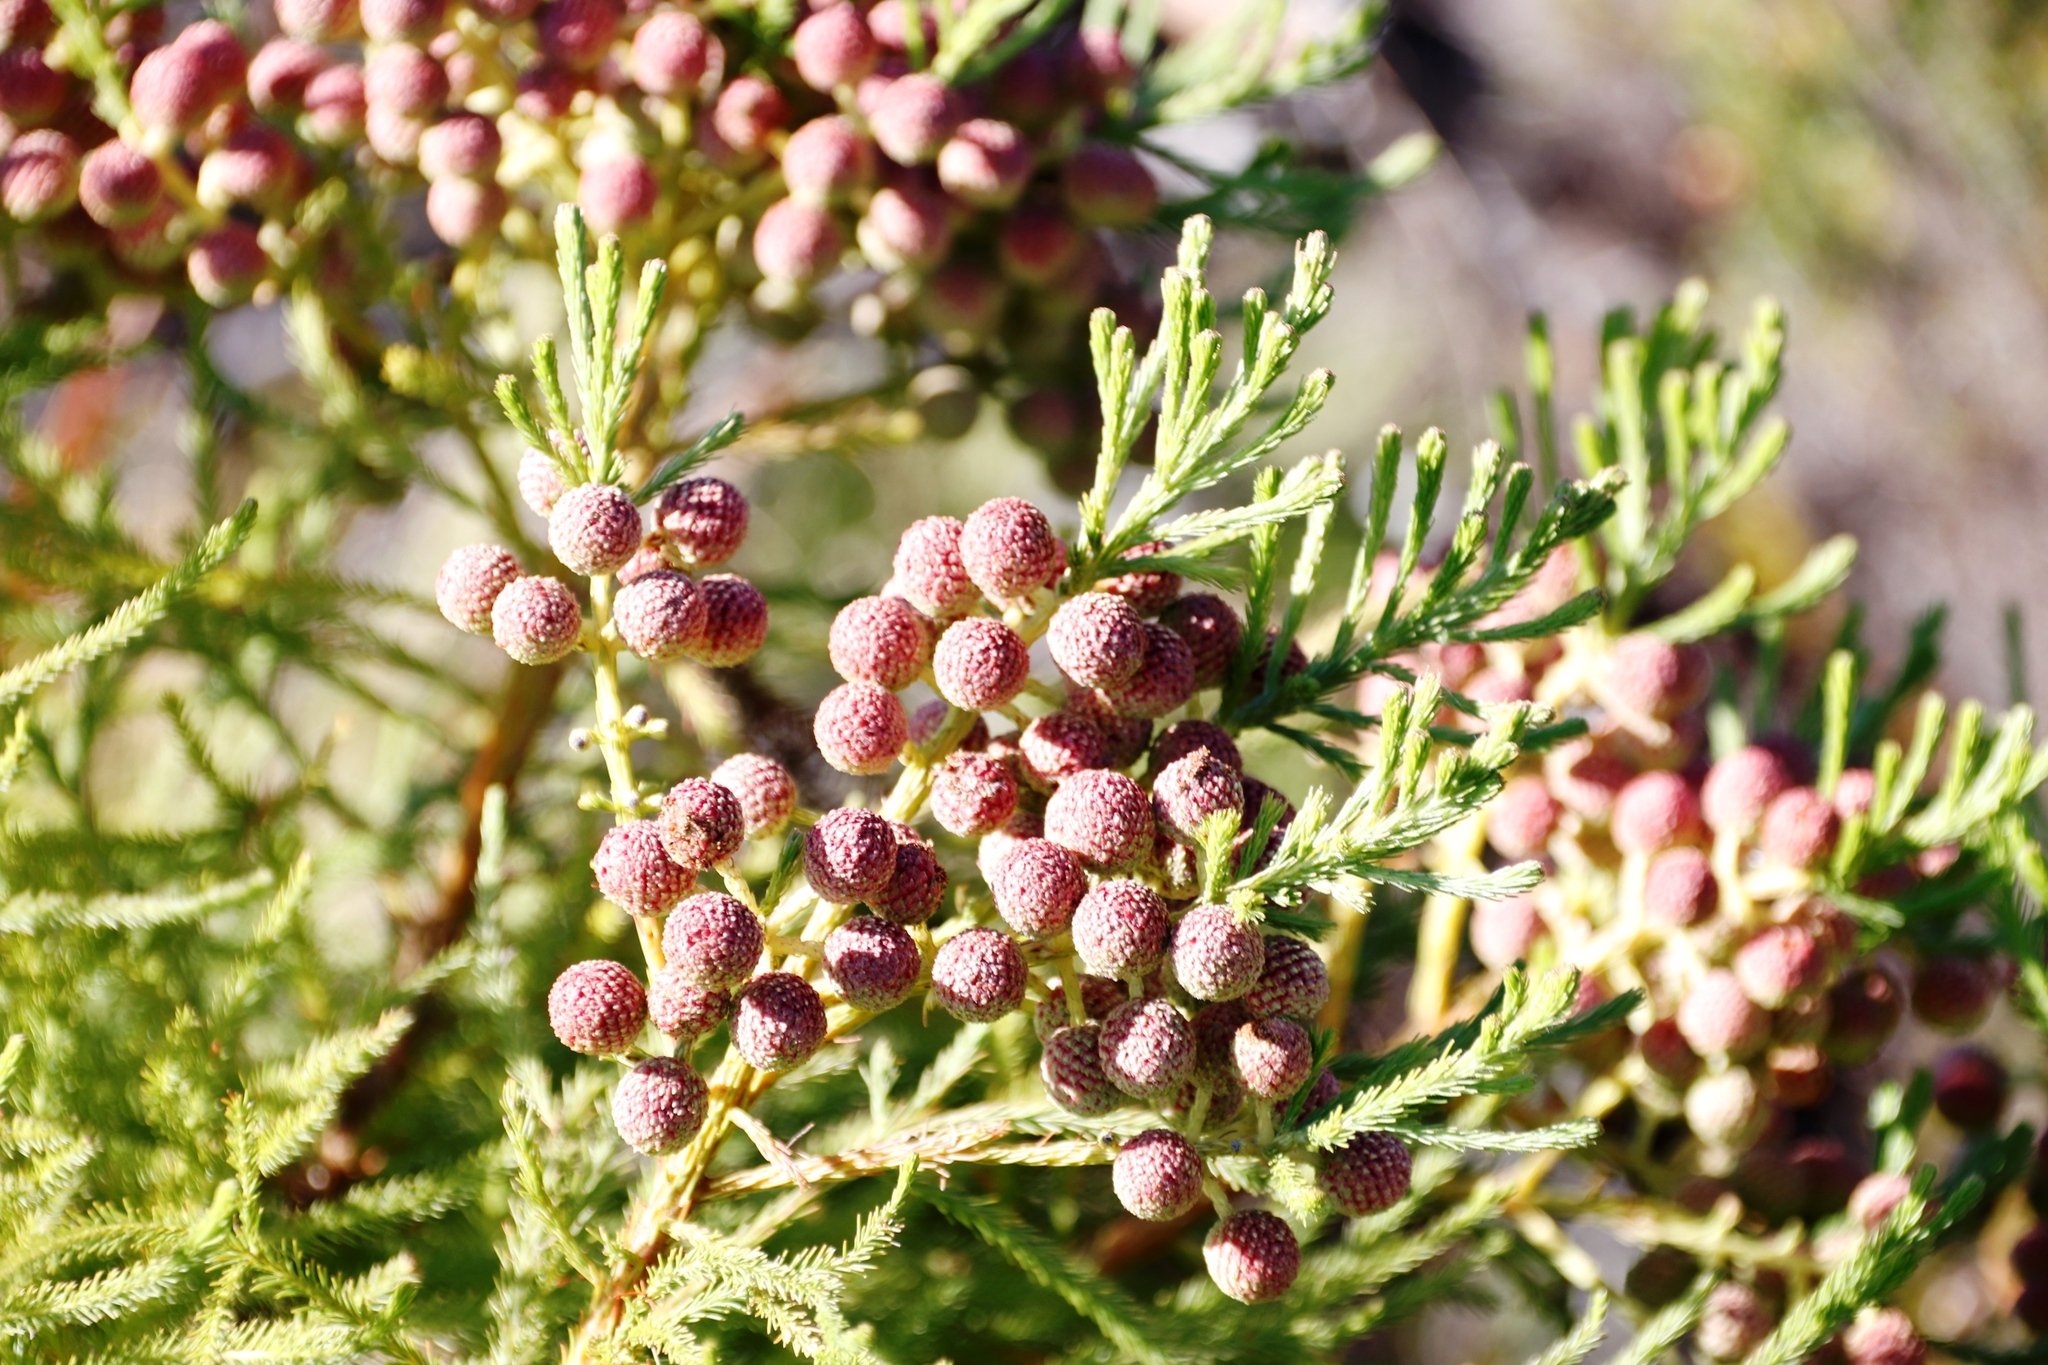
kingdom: Plantae
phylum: Tracheophyta
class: Magnoliopsida
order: Bruniales
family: Bruniaceae
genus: Berzelia
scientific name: Berzelia lanuginosa
